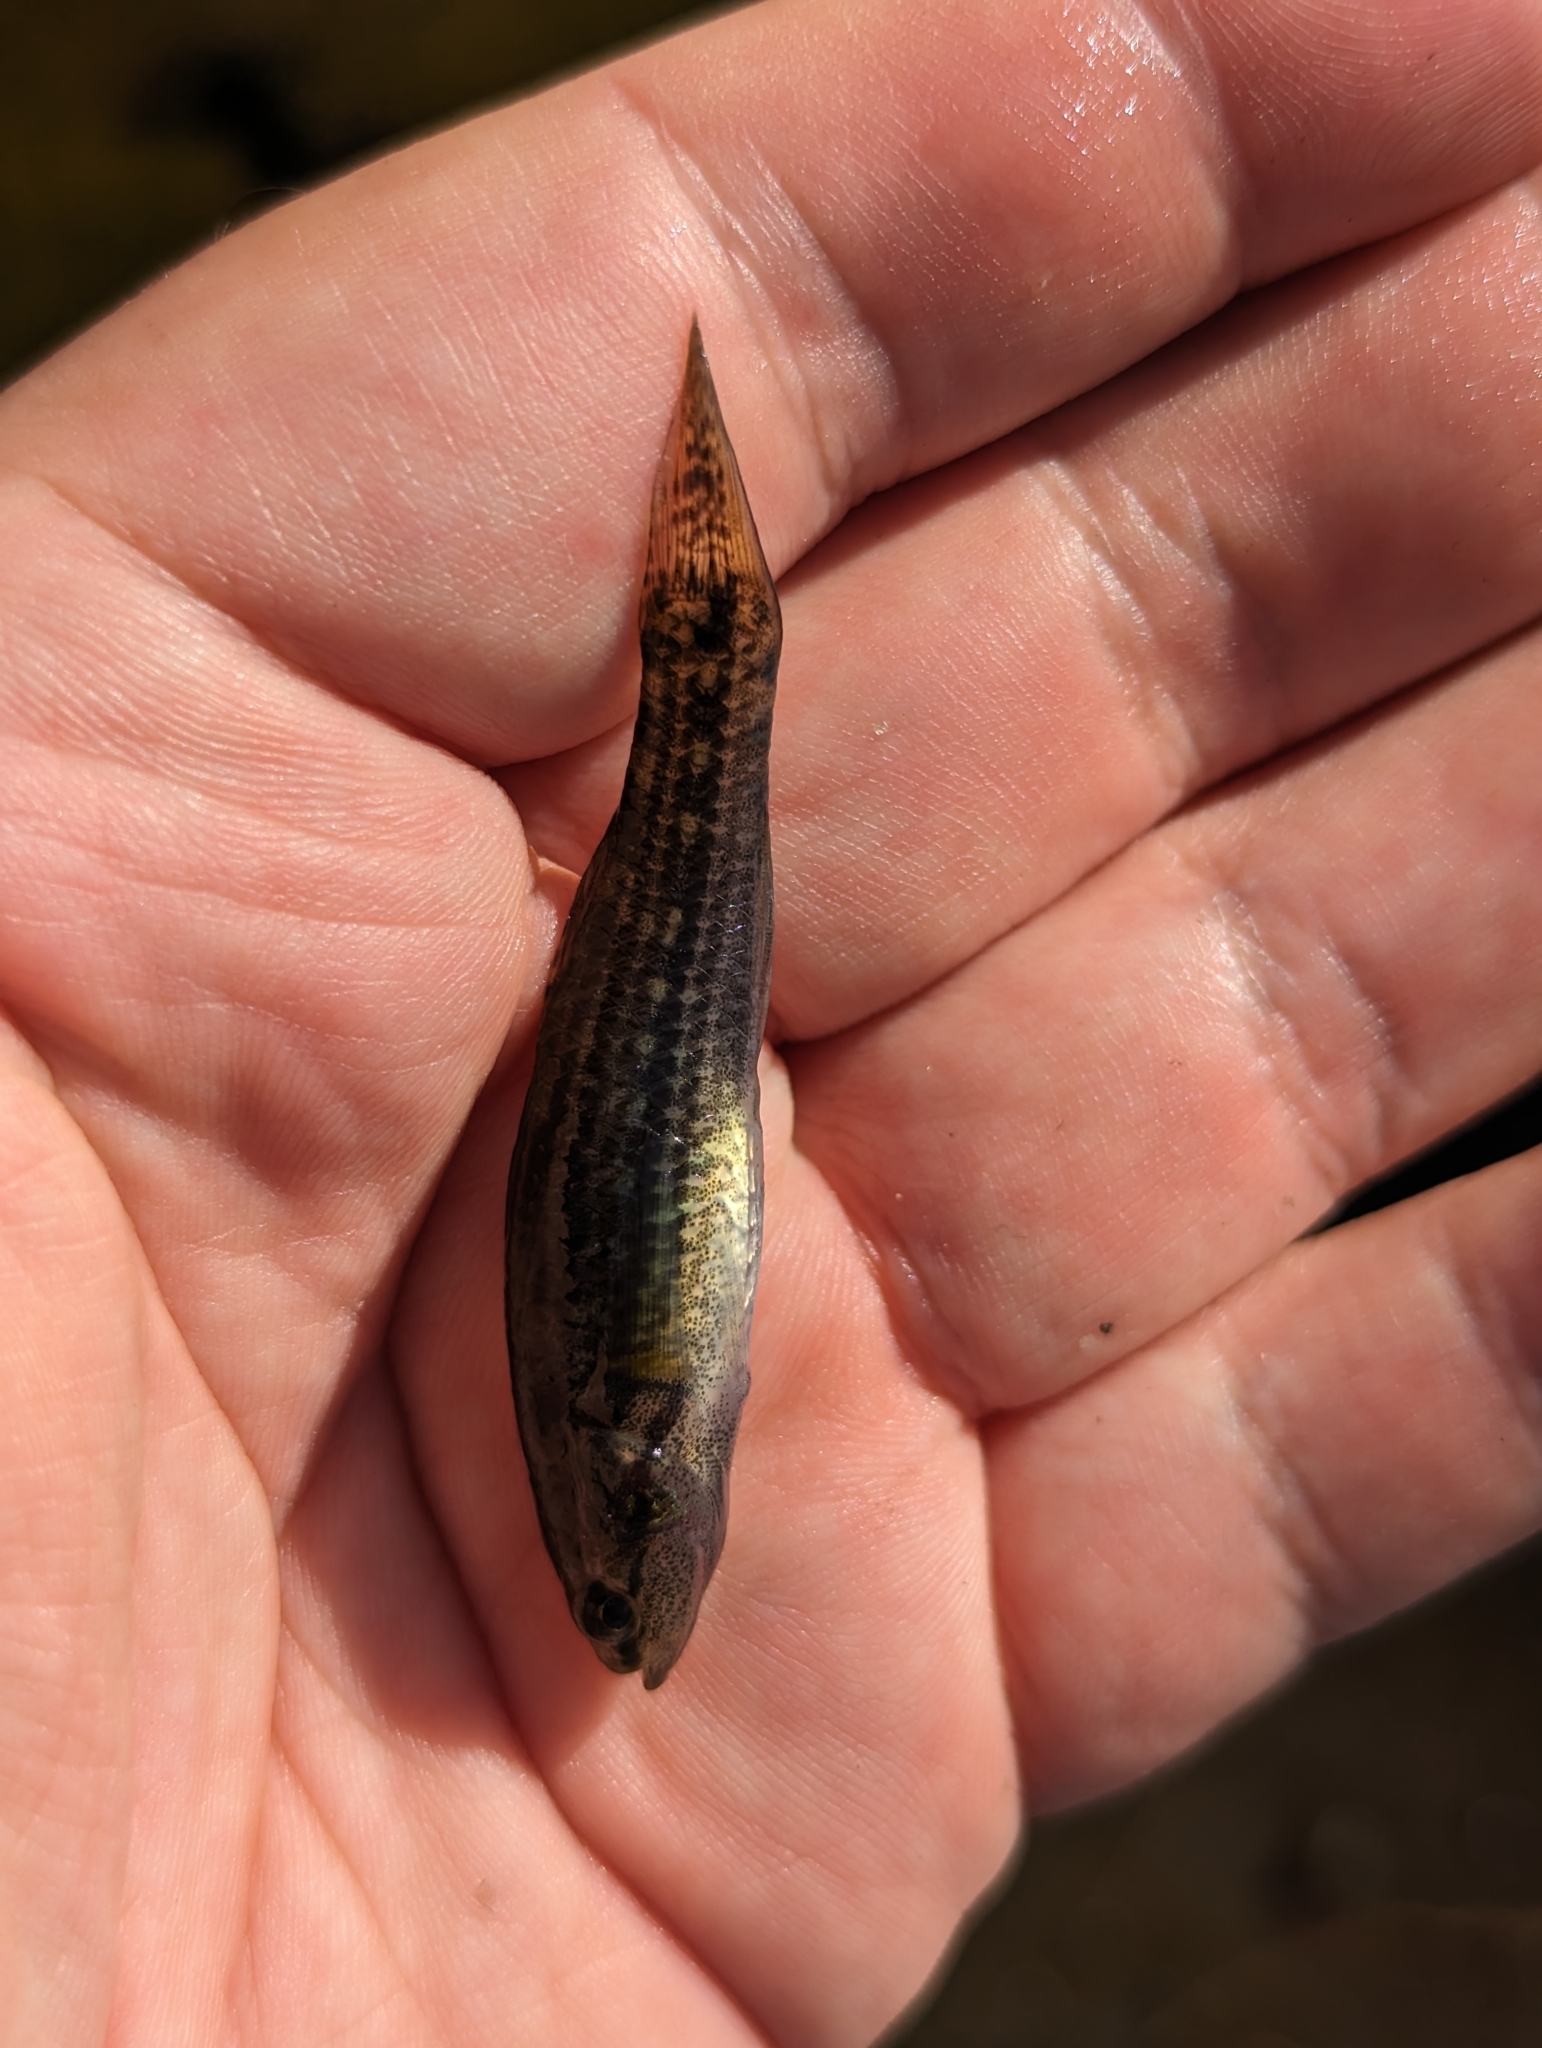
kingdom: Animalia
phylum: Chordata
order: Perciformes
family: Eleotridae
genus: Gobiomorphus
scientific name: Gobiomorphus australis
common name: Striped gudgeon
